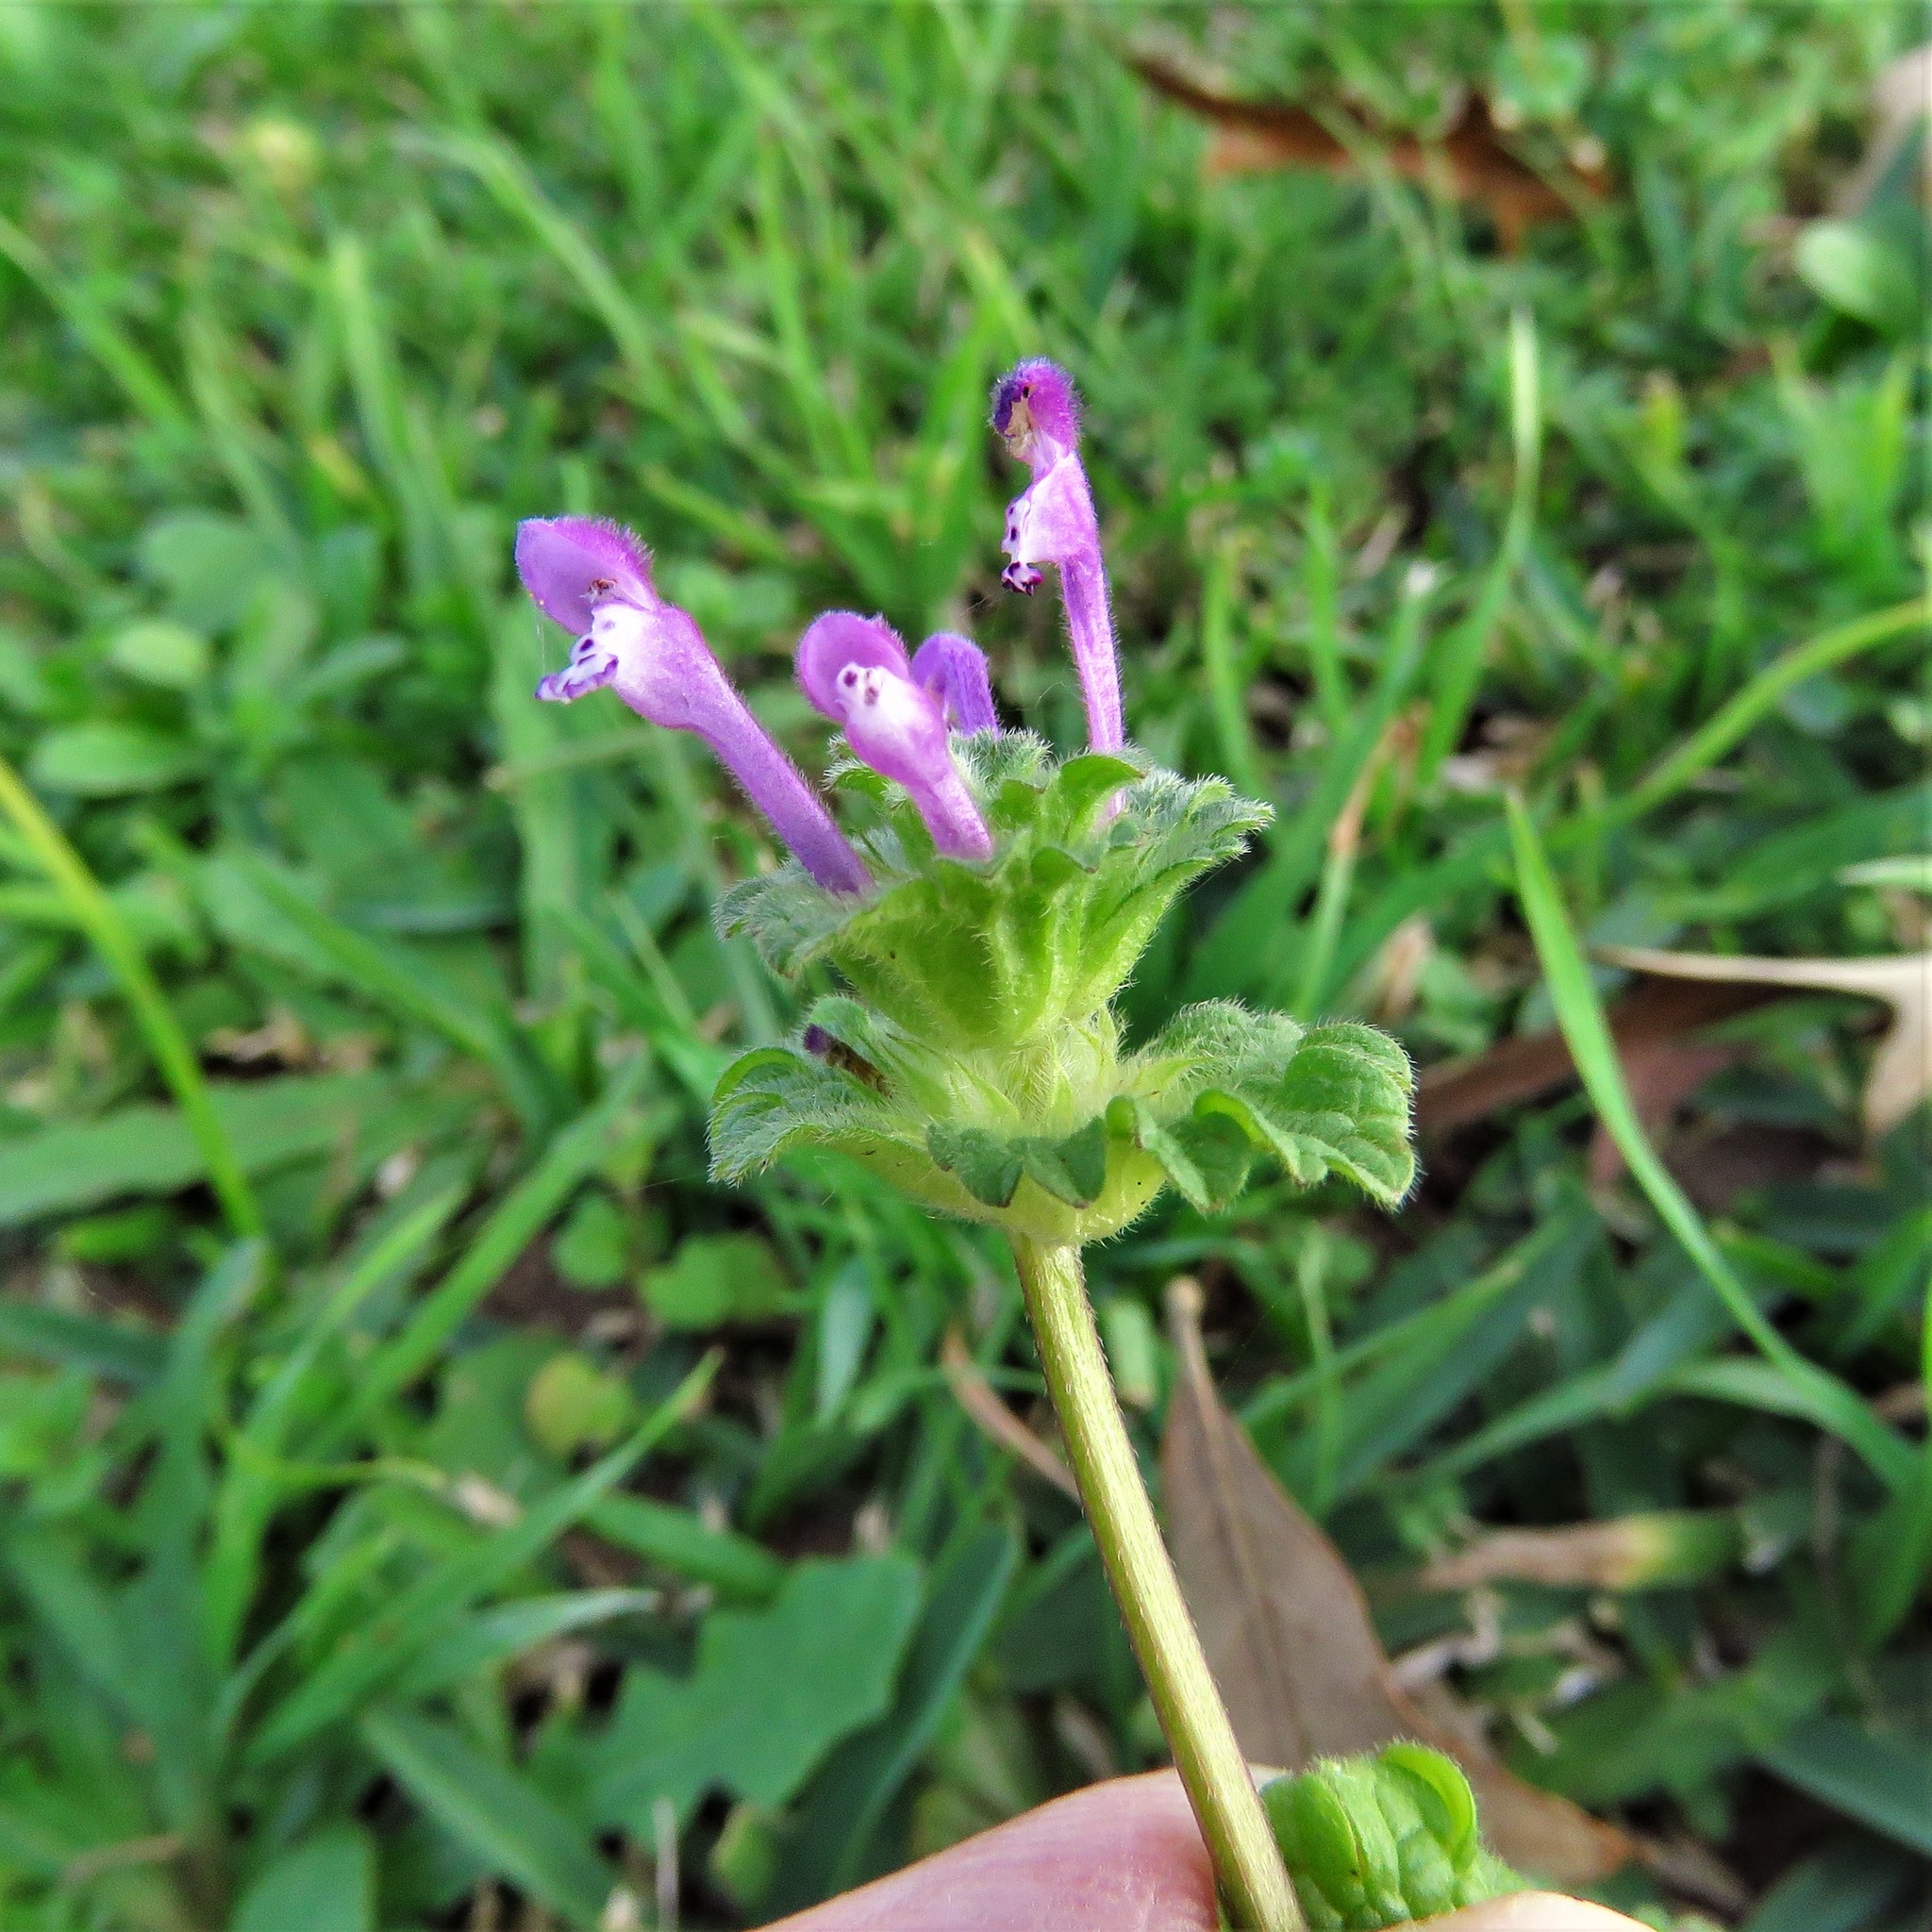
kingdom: Plantae
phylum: Tracheophyta
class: Magnoliopsida
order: Lamiales
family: Lamiaceae
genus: Lamium
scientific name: Lamium amplexicaule
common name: Henbit dead-nettle
